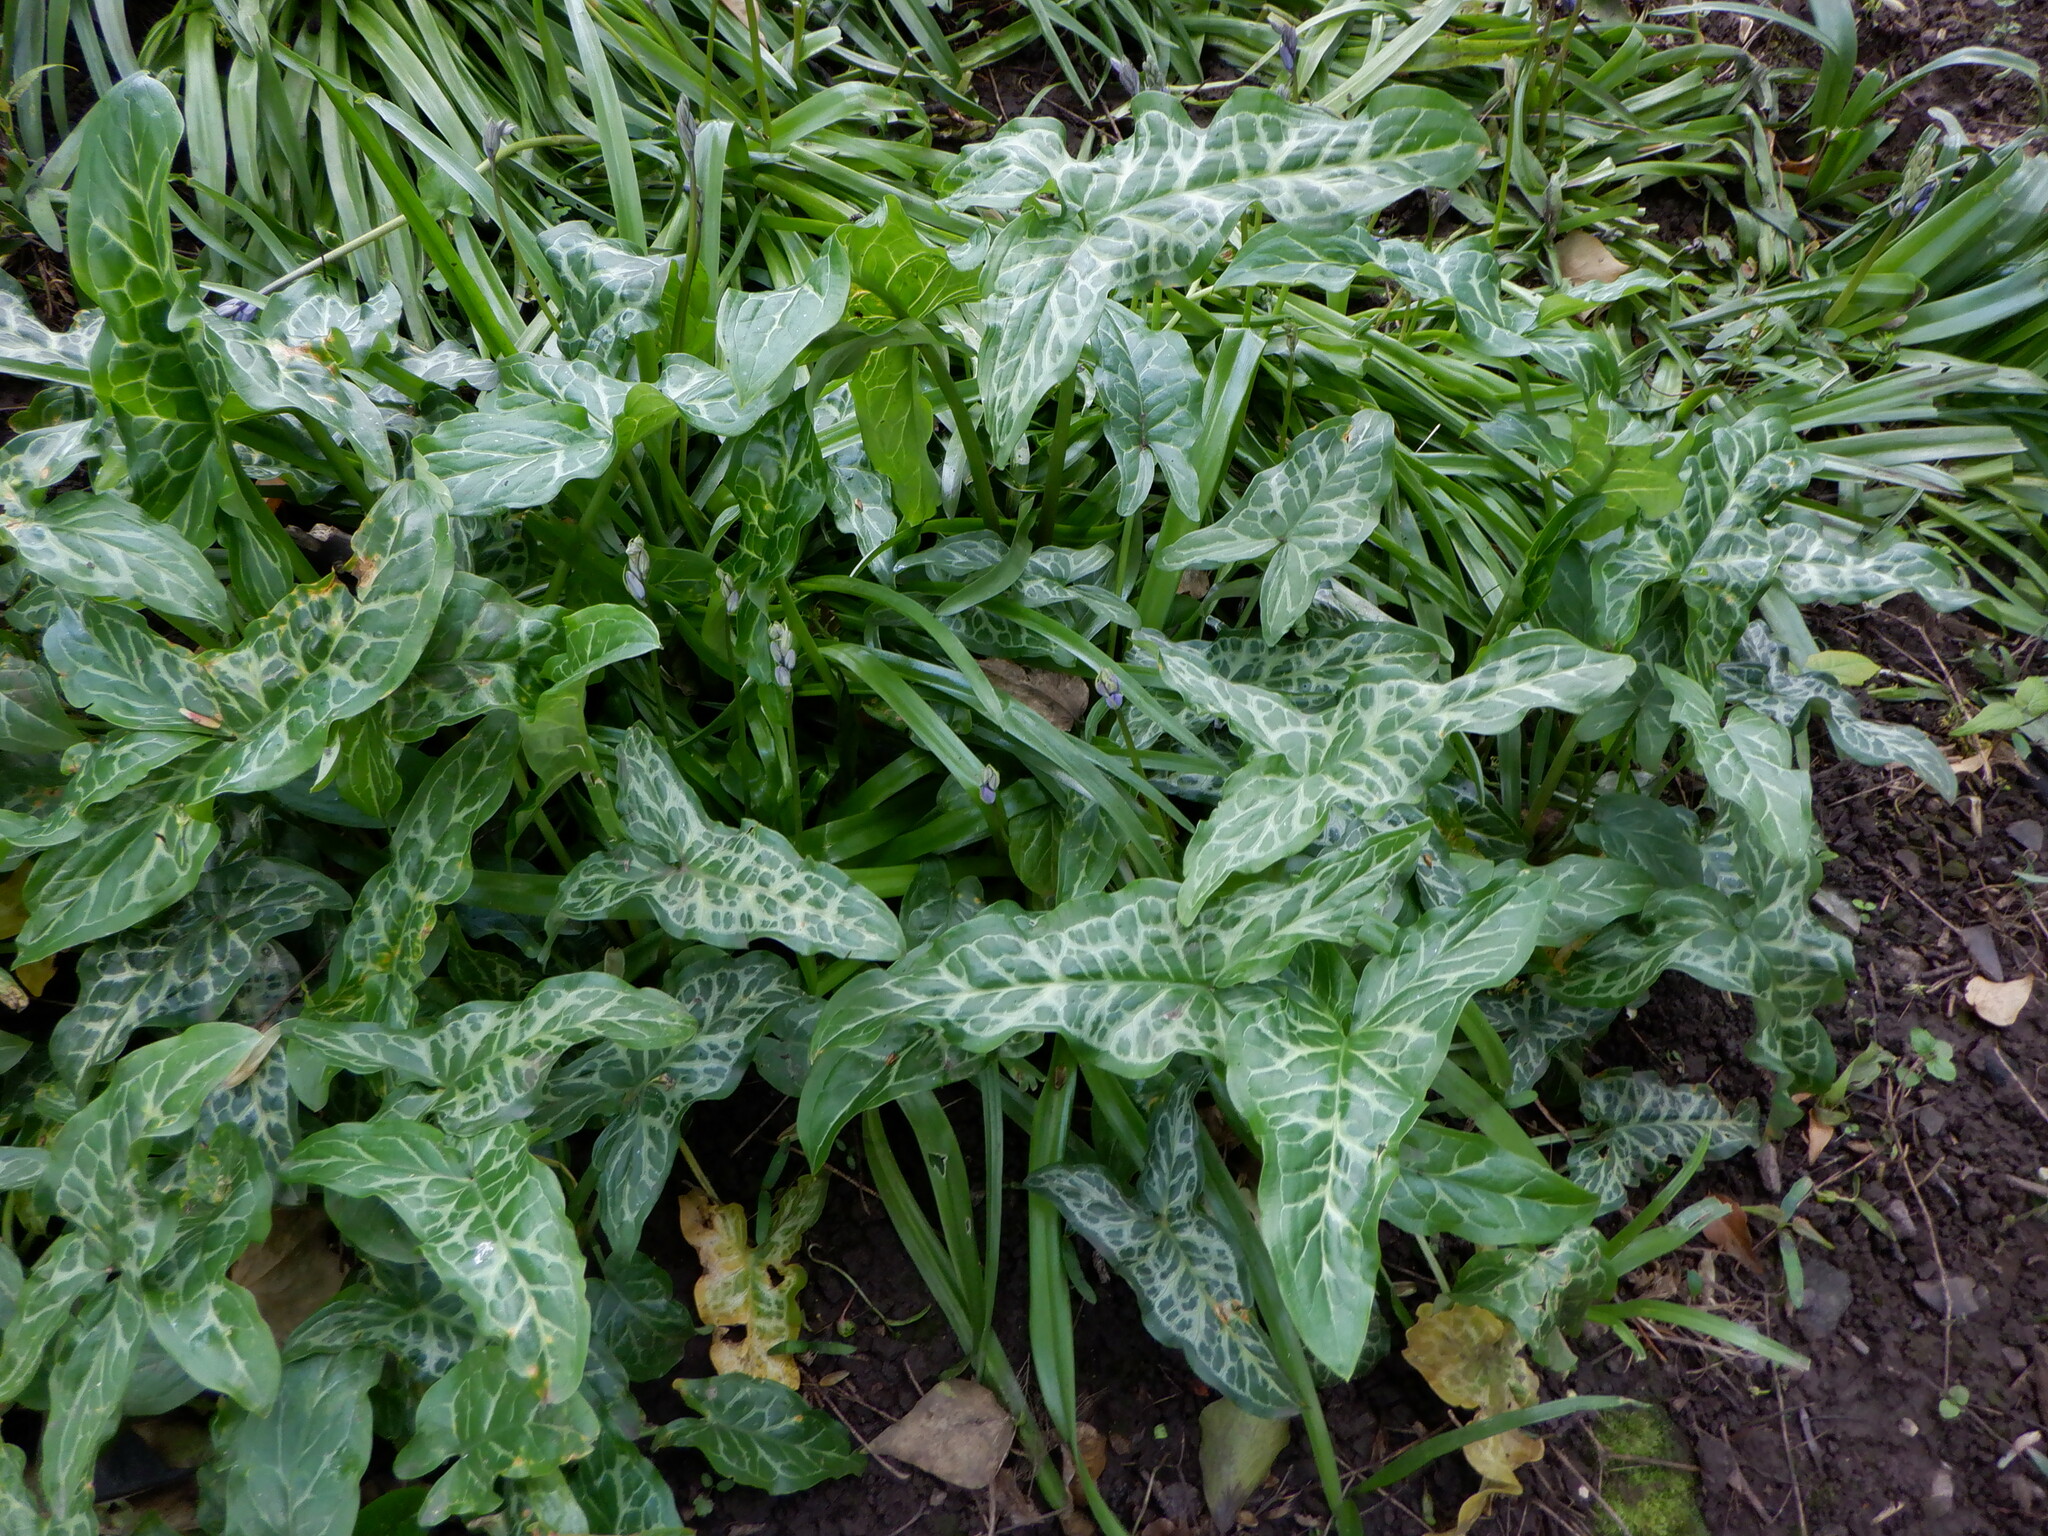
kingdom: Plantae
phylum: Tracheophyta
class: Liliopsida
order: Alismatales
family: Araceae
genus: Arum
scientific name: Arum italicum
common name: Italian lords-and-ladies
